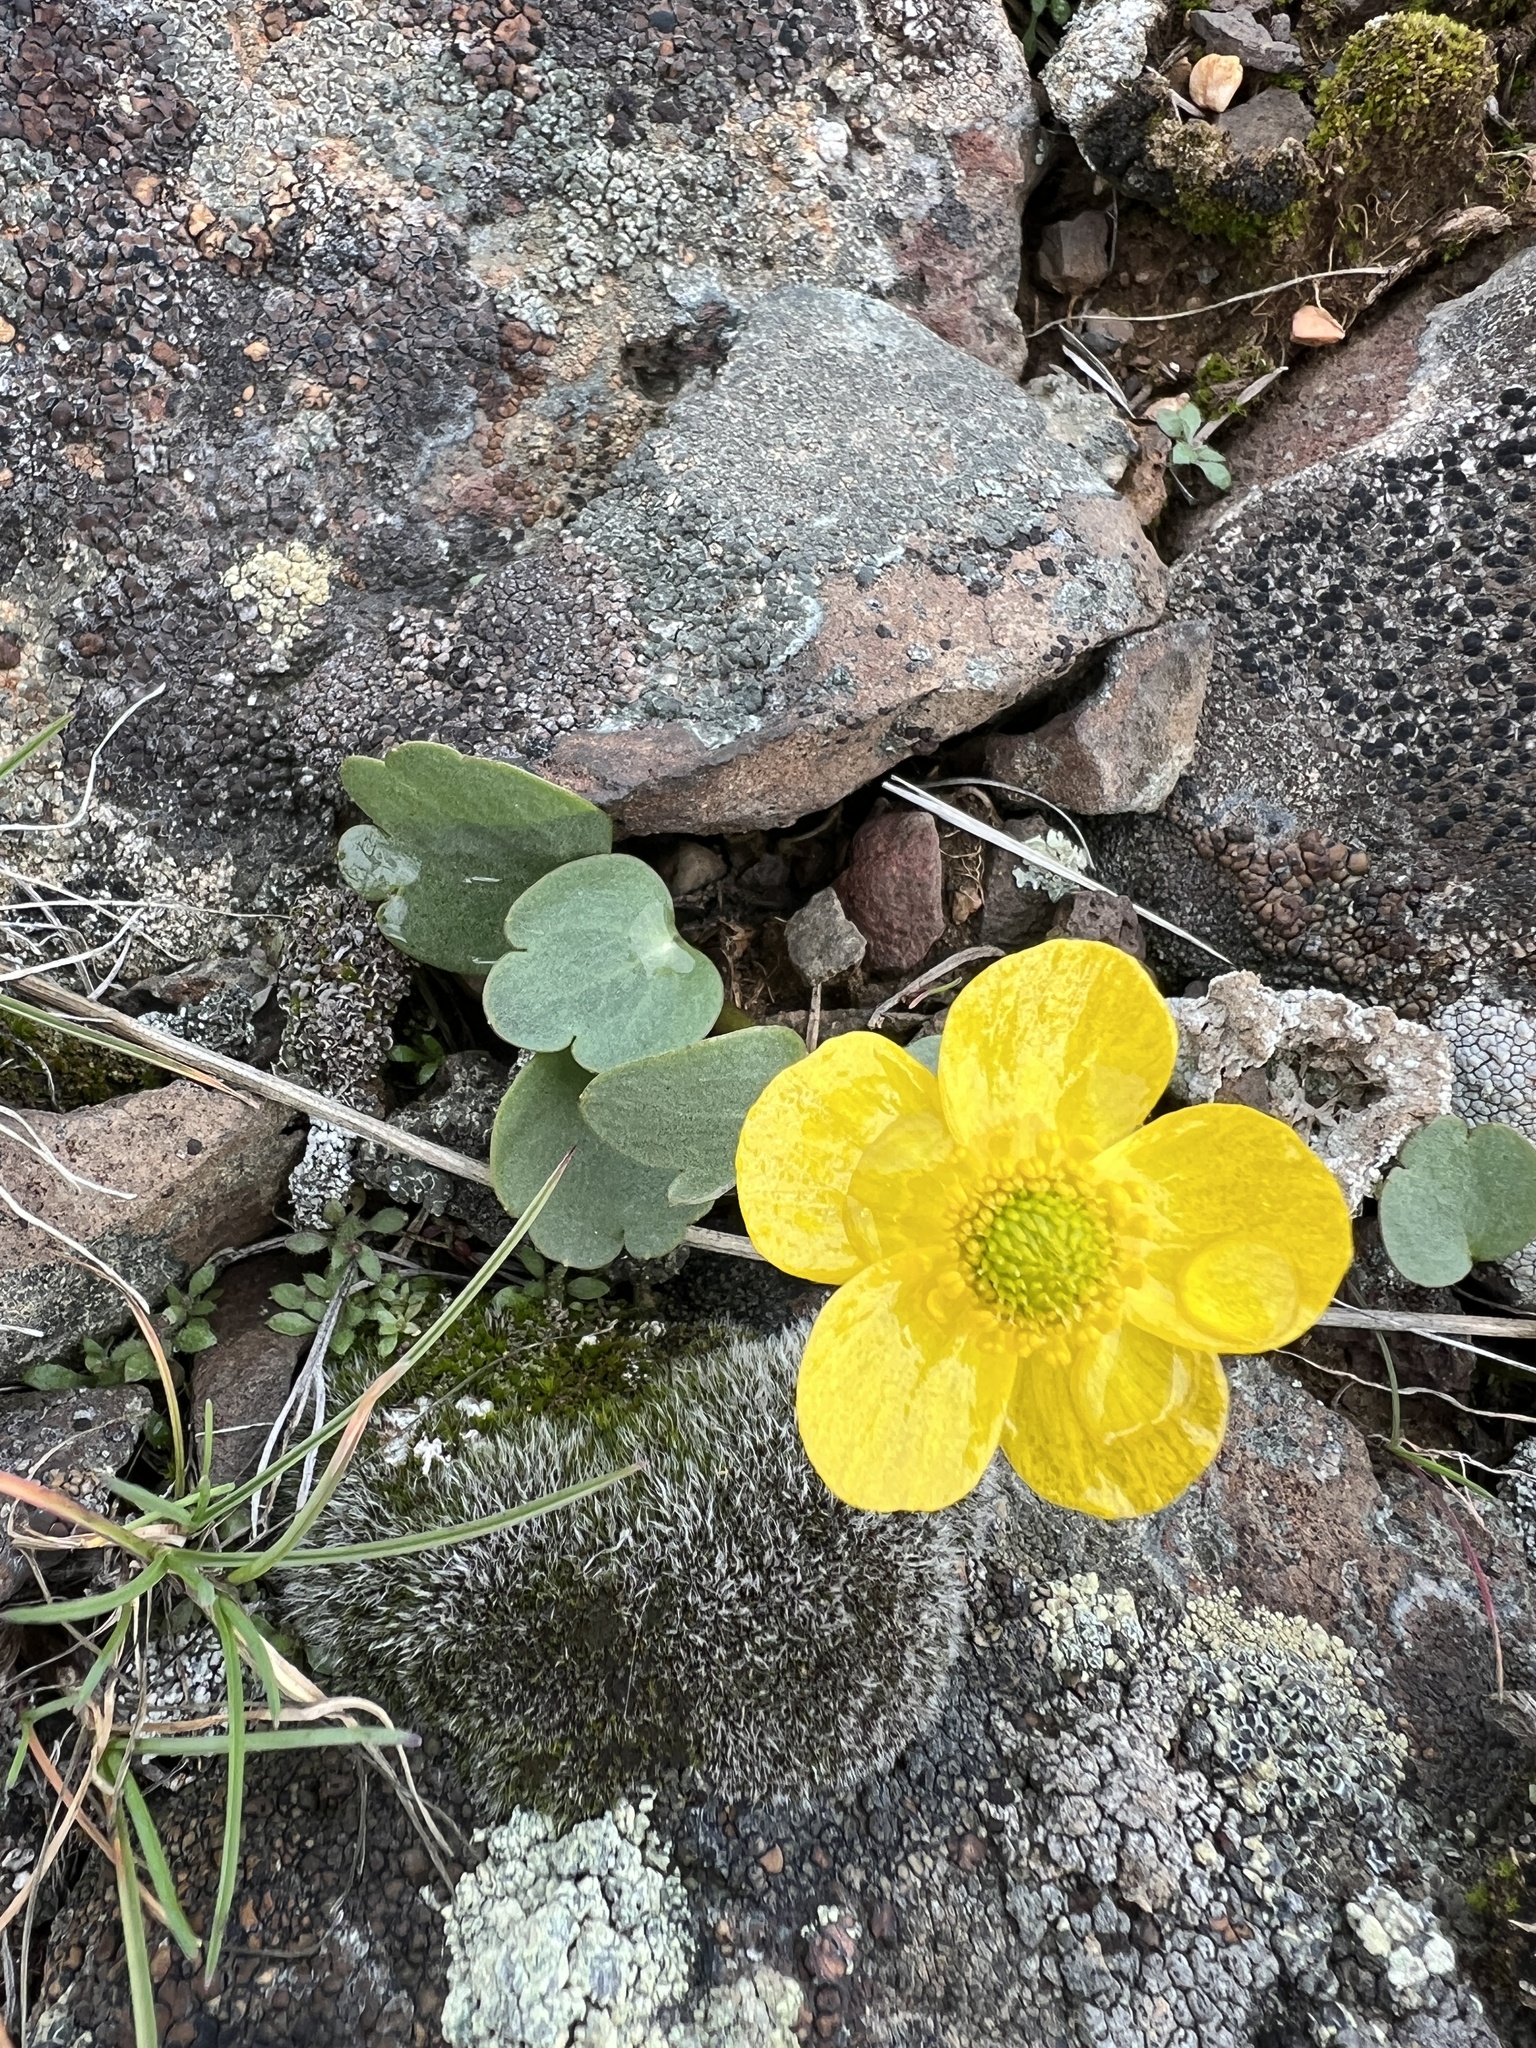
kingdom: Plantae
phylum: Tracheophyta
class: Magnoliopsida
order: Ranunculales
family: Ranunculaceae
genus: Ranunculus
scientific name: Ranunculus glaberrimus
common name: Sagebrush buttercup
